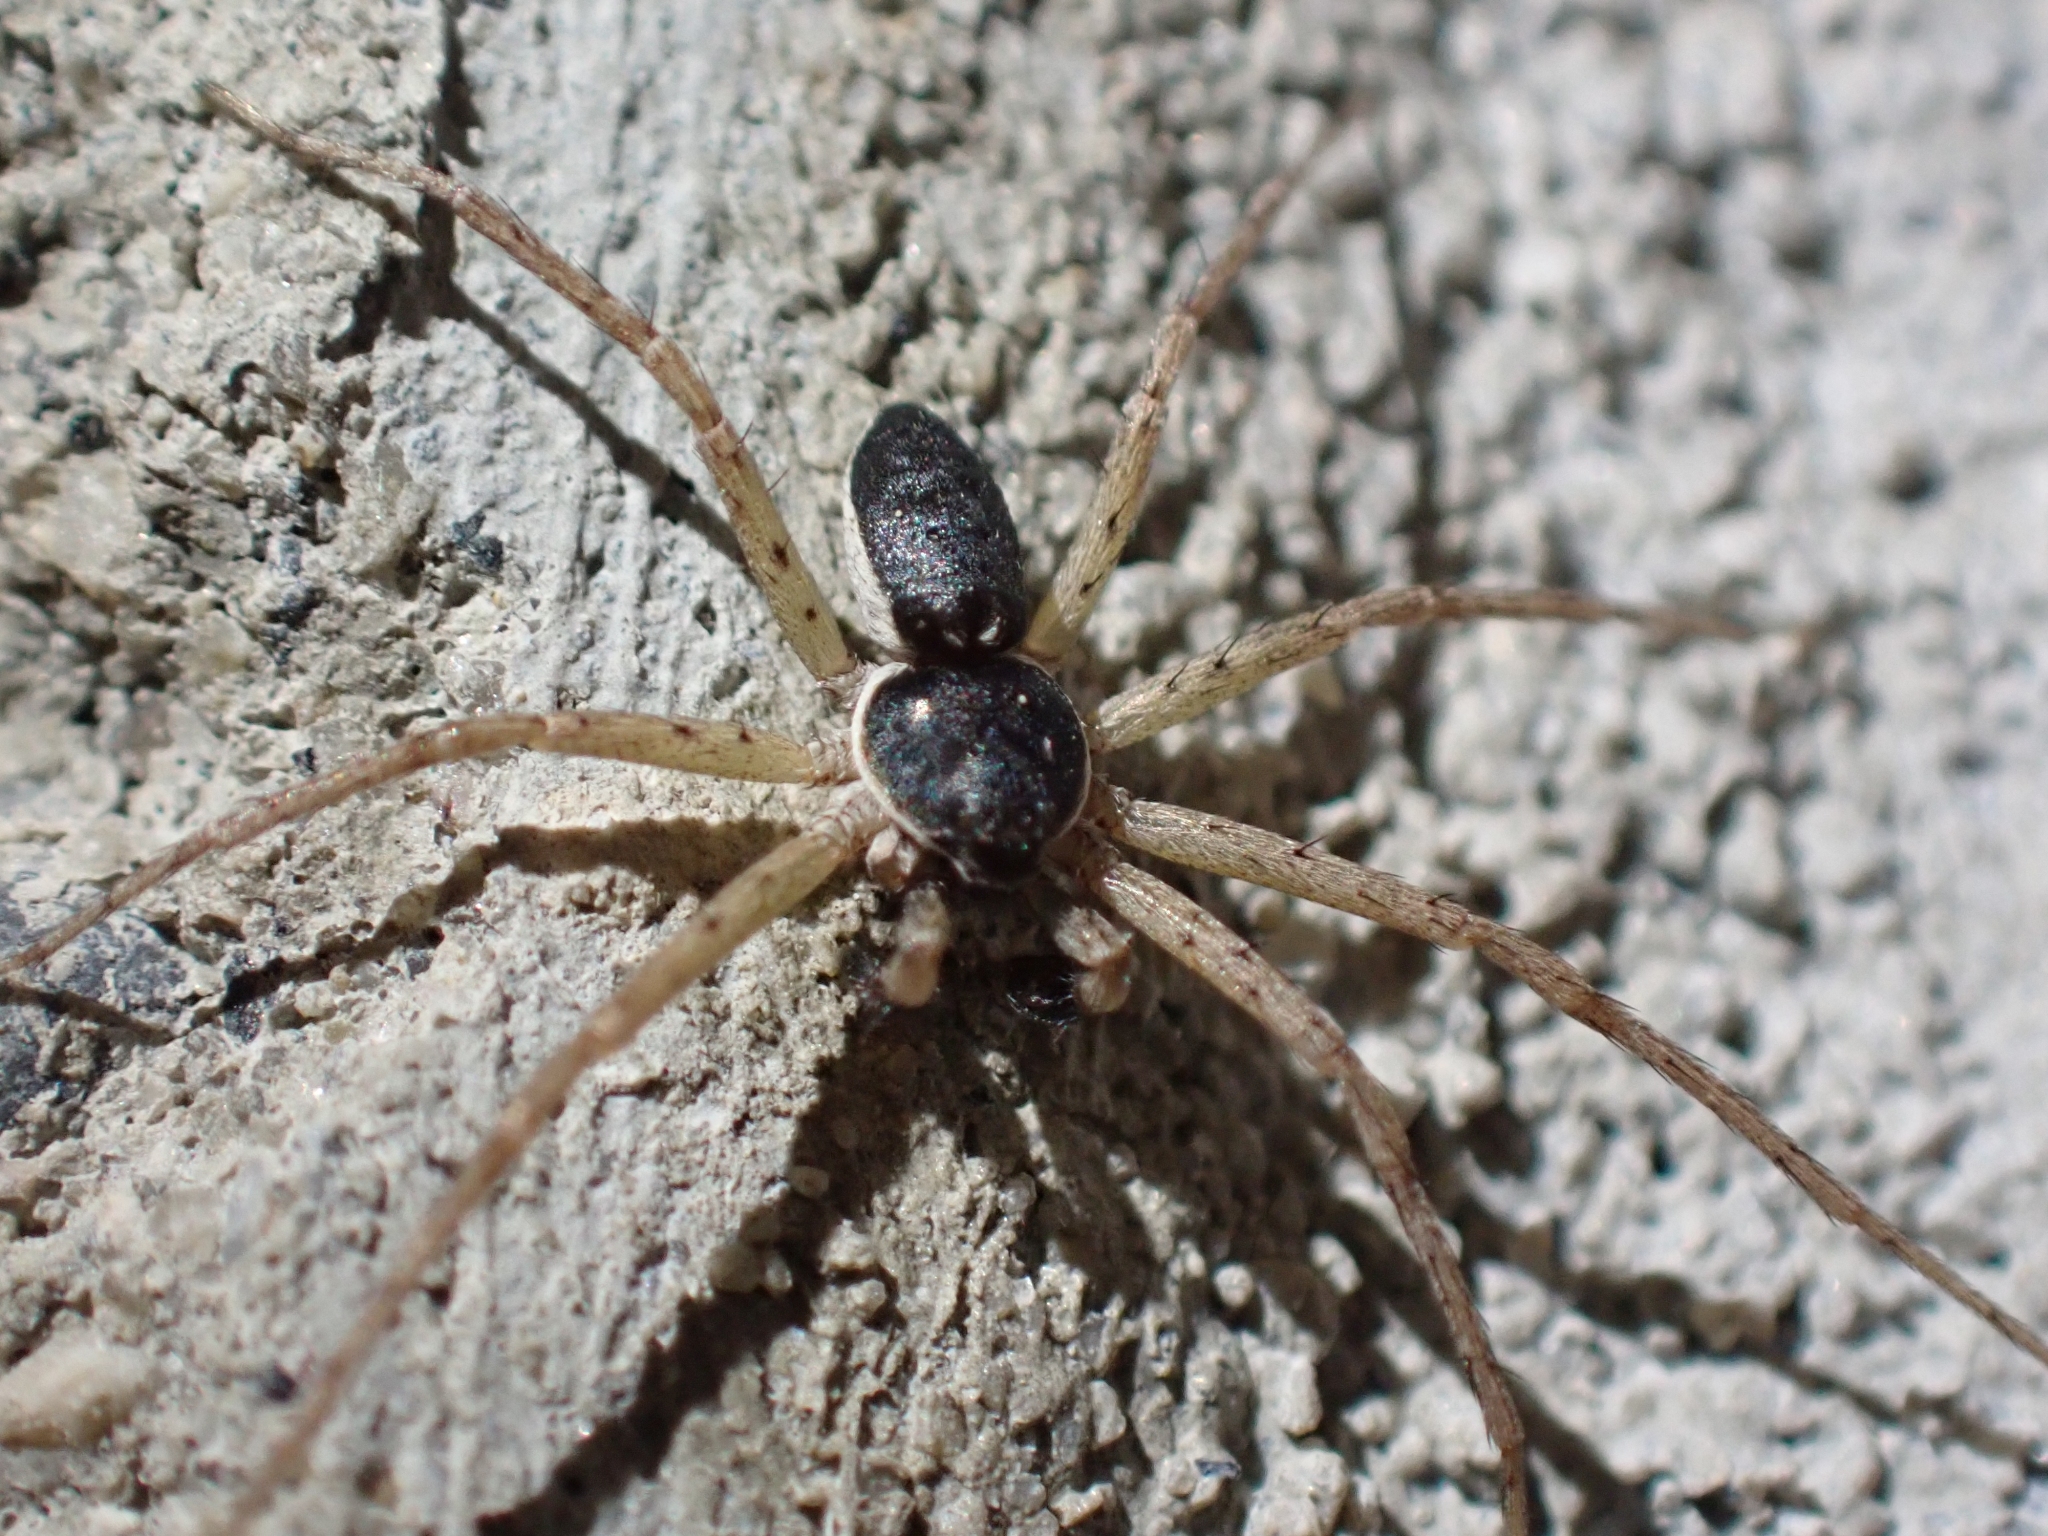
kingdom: Animalia
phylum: Arthropoda
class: Arachnida
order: Araneae
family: Philodromidae
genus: Philodromus
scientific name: Philodromus dispar
